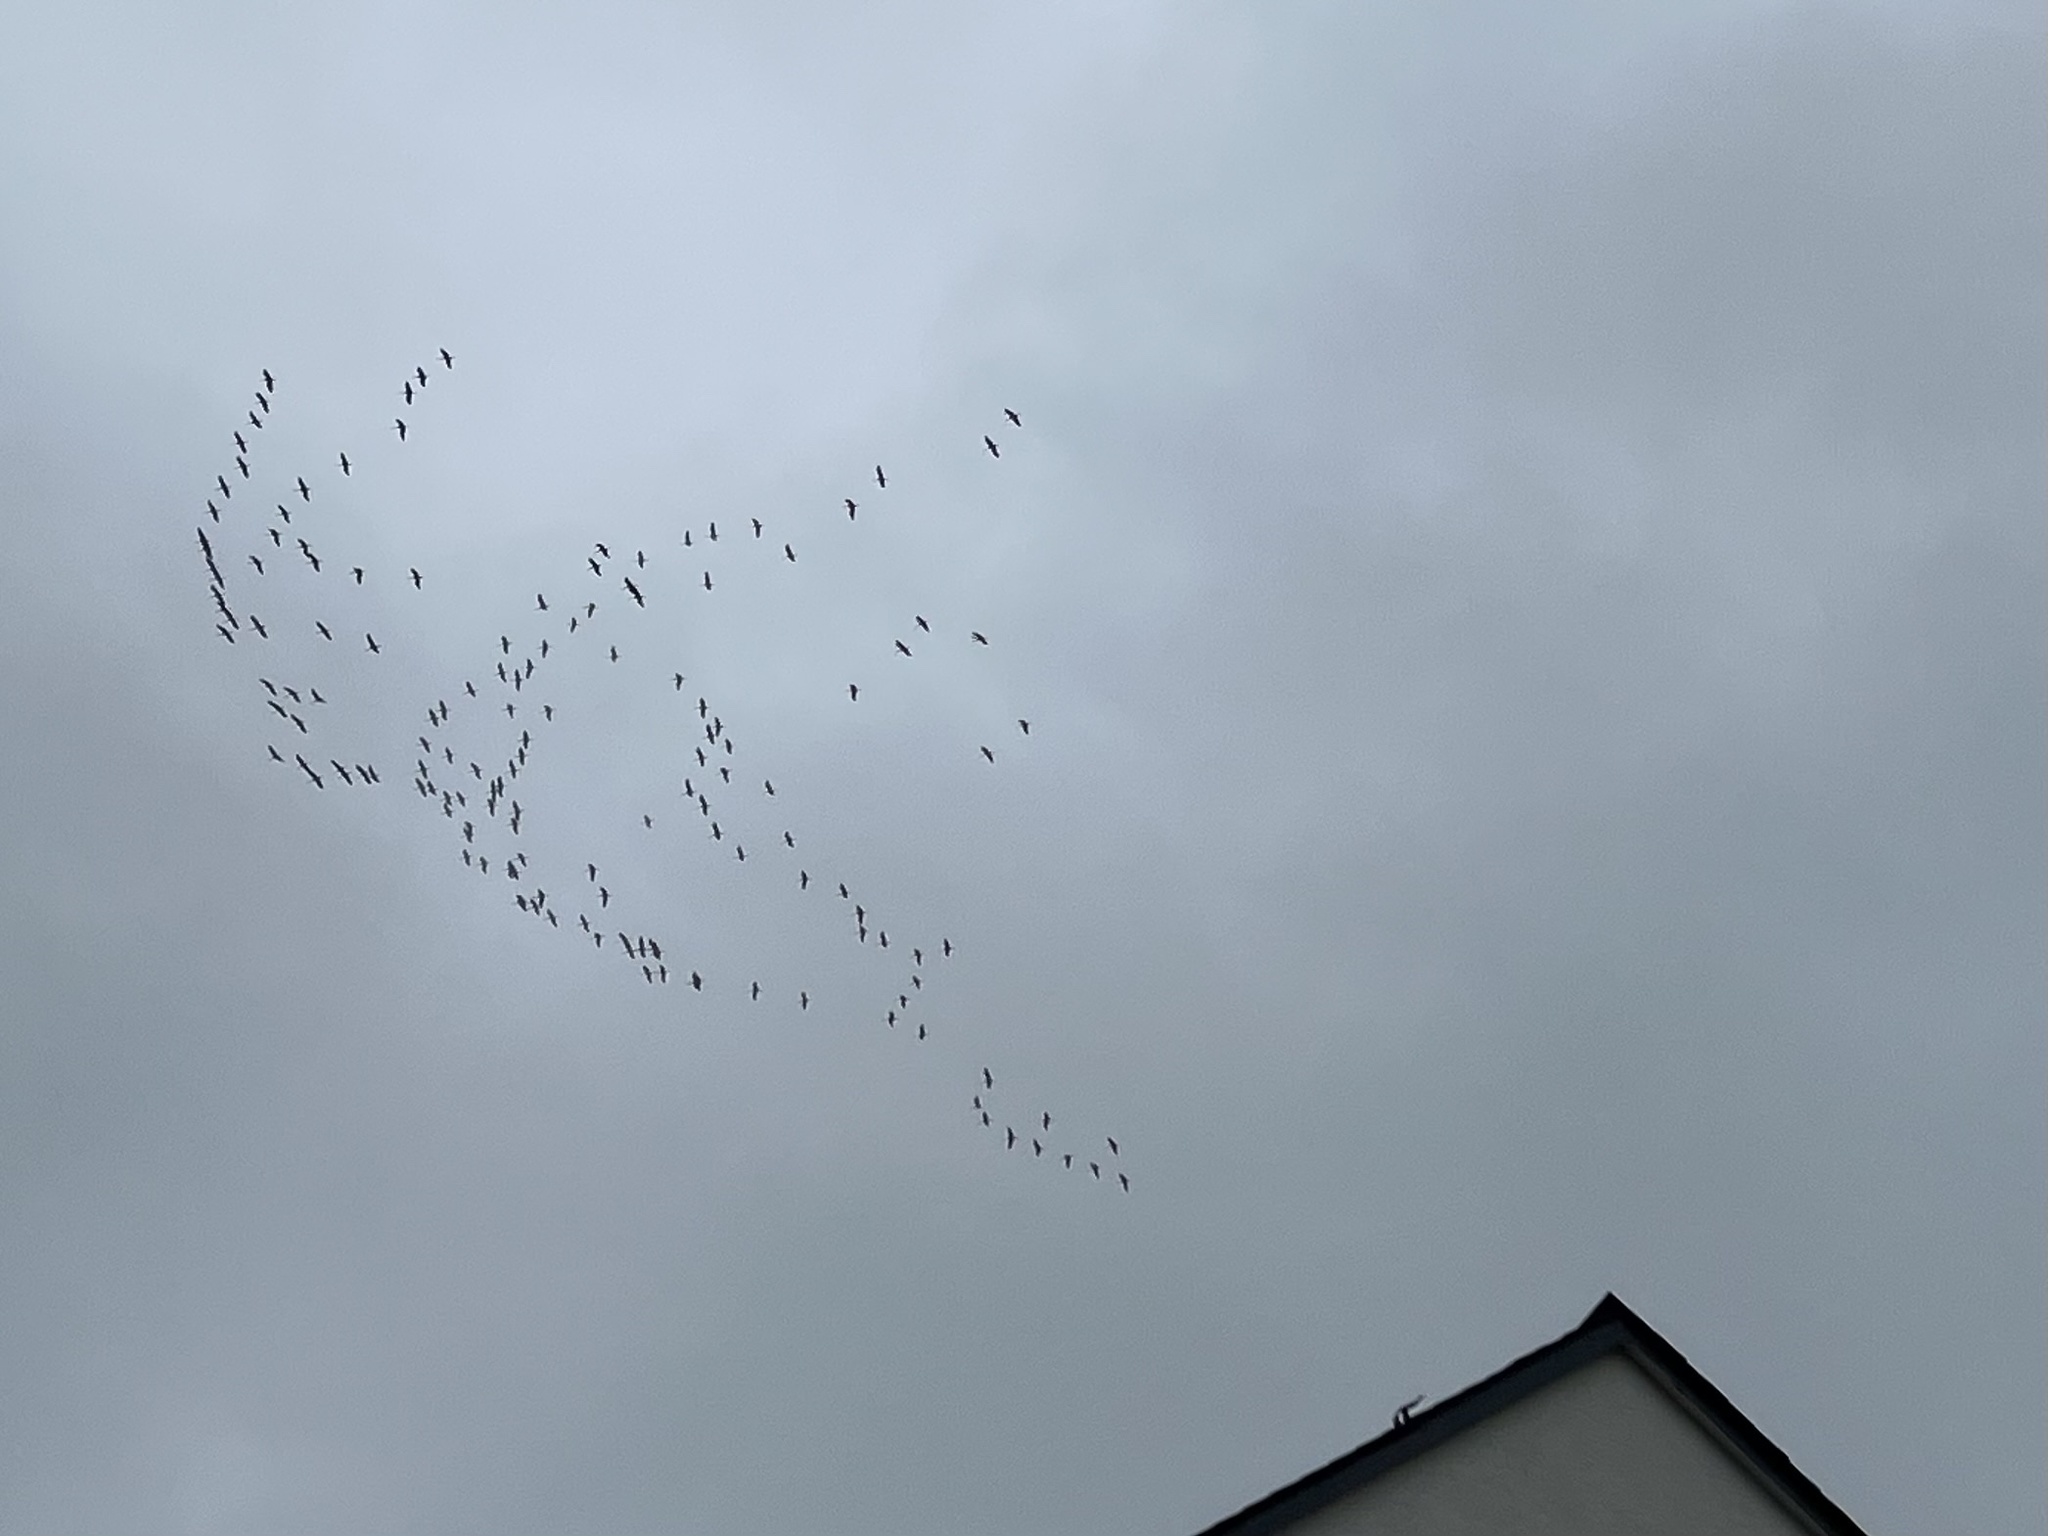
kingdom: Animalia
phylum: Chordata
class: Aves
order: Gruiformes
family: Gruidae
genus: Grus
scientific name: Grus grus
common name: Common crane
